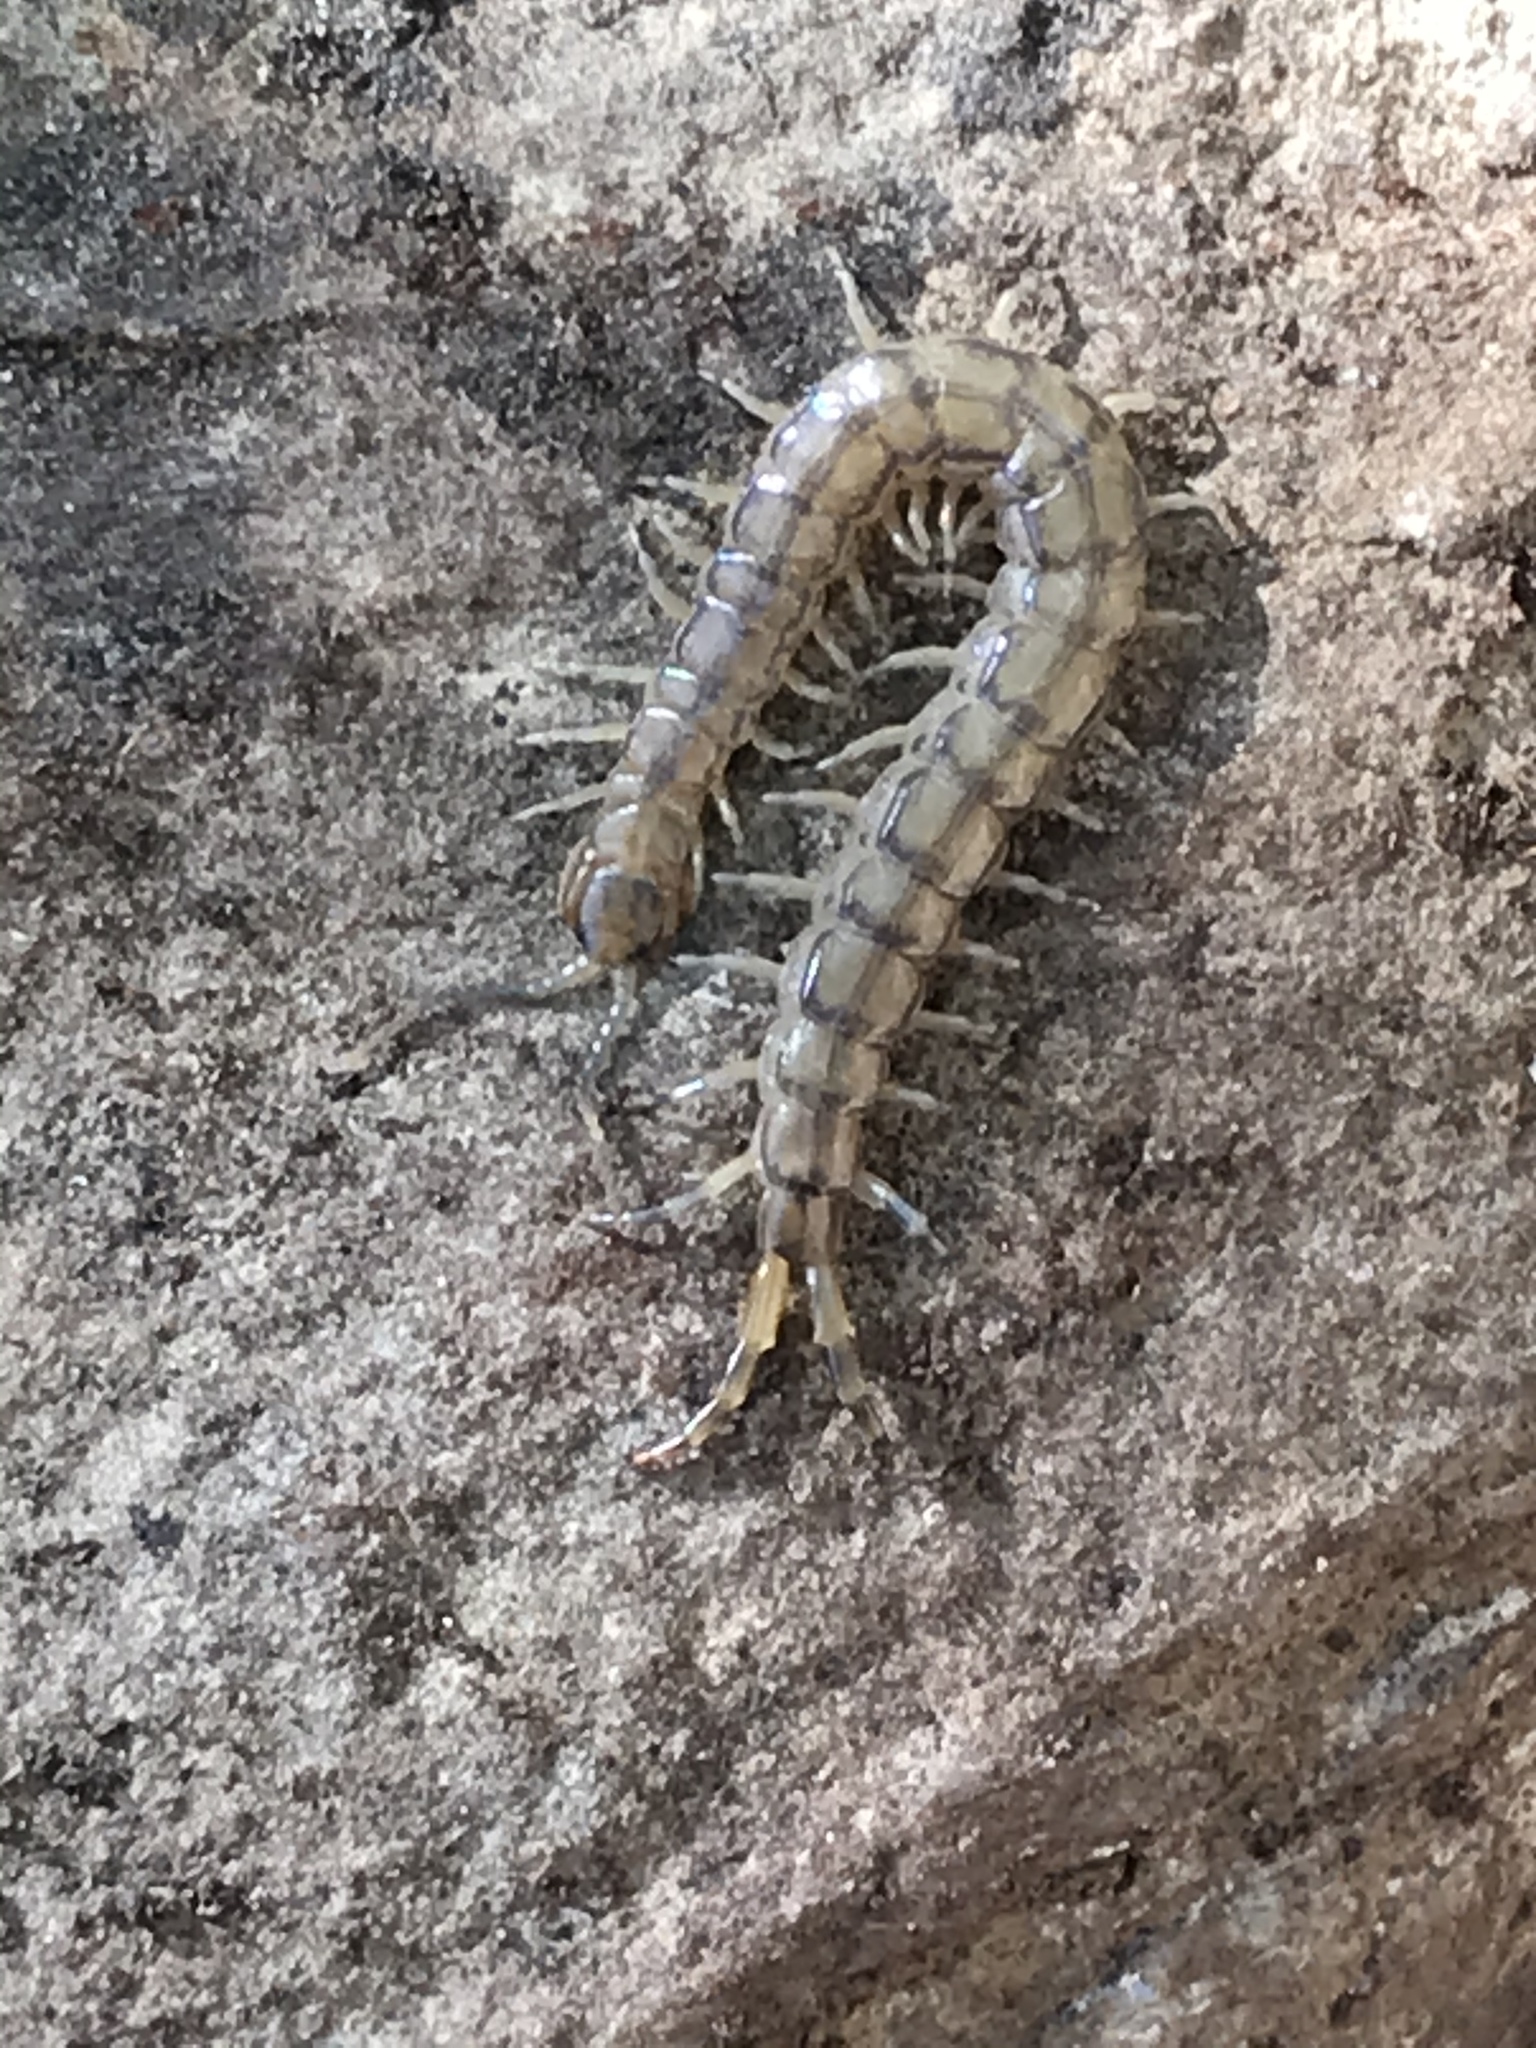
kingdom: Animalia
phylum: Arthropoda
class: Chilopoda
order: Scolopendromorpha
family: Scolopendridae
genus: Hemiscolopendra
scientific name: Hemiscolopendra marginata
